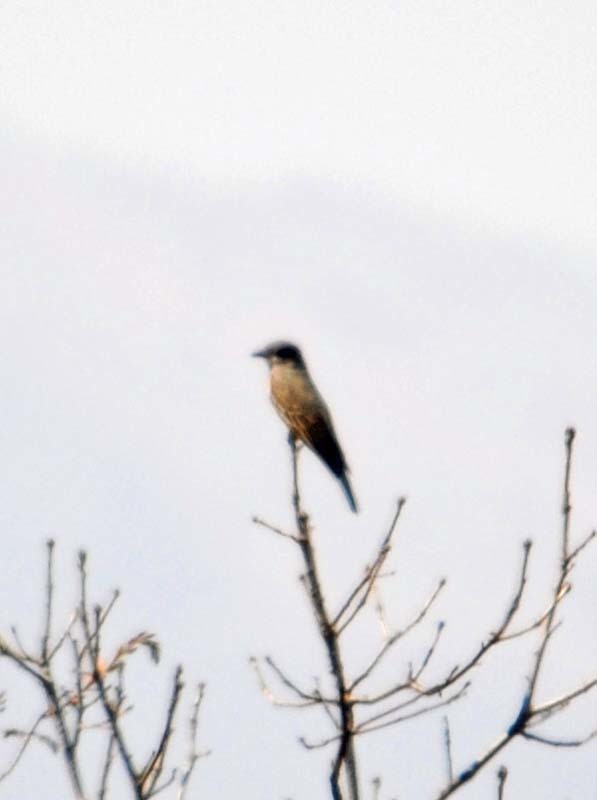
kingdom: Animalia
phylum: Chordata
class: Aves
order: Passeriformes
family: Tyrannidae
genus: Tyrannus
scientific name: Tyrannus vociferans
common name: Cassin's kingbird
